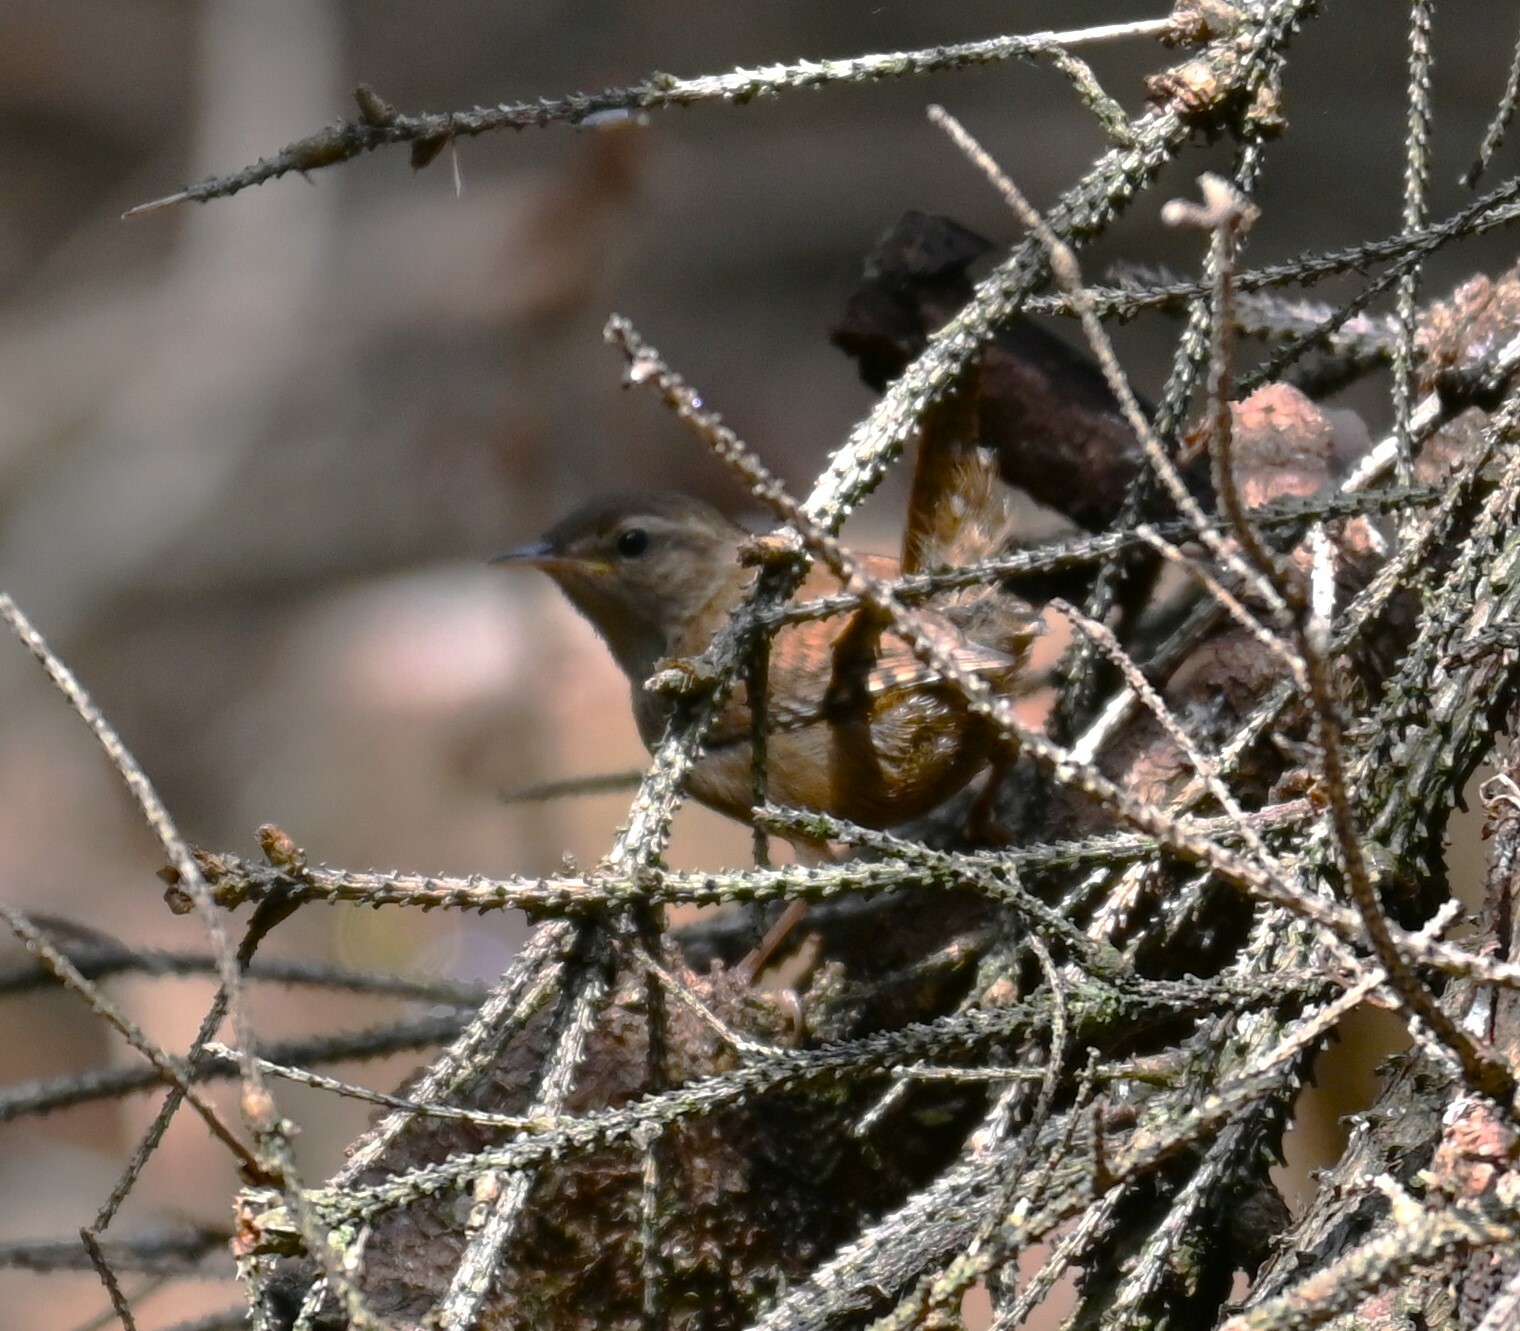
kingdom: Animalia
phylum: Chordata
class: Aves
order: Passeriformes
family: Troglodytidae
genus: Troglodytes
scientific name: Troglodytes troglodytes
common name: Eurasian wren
